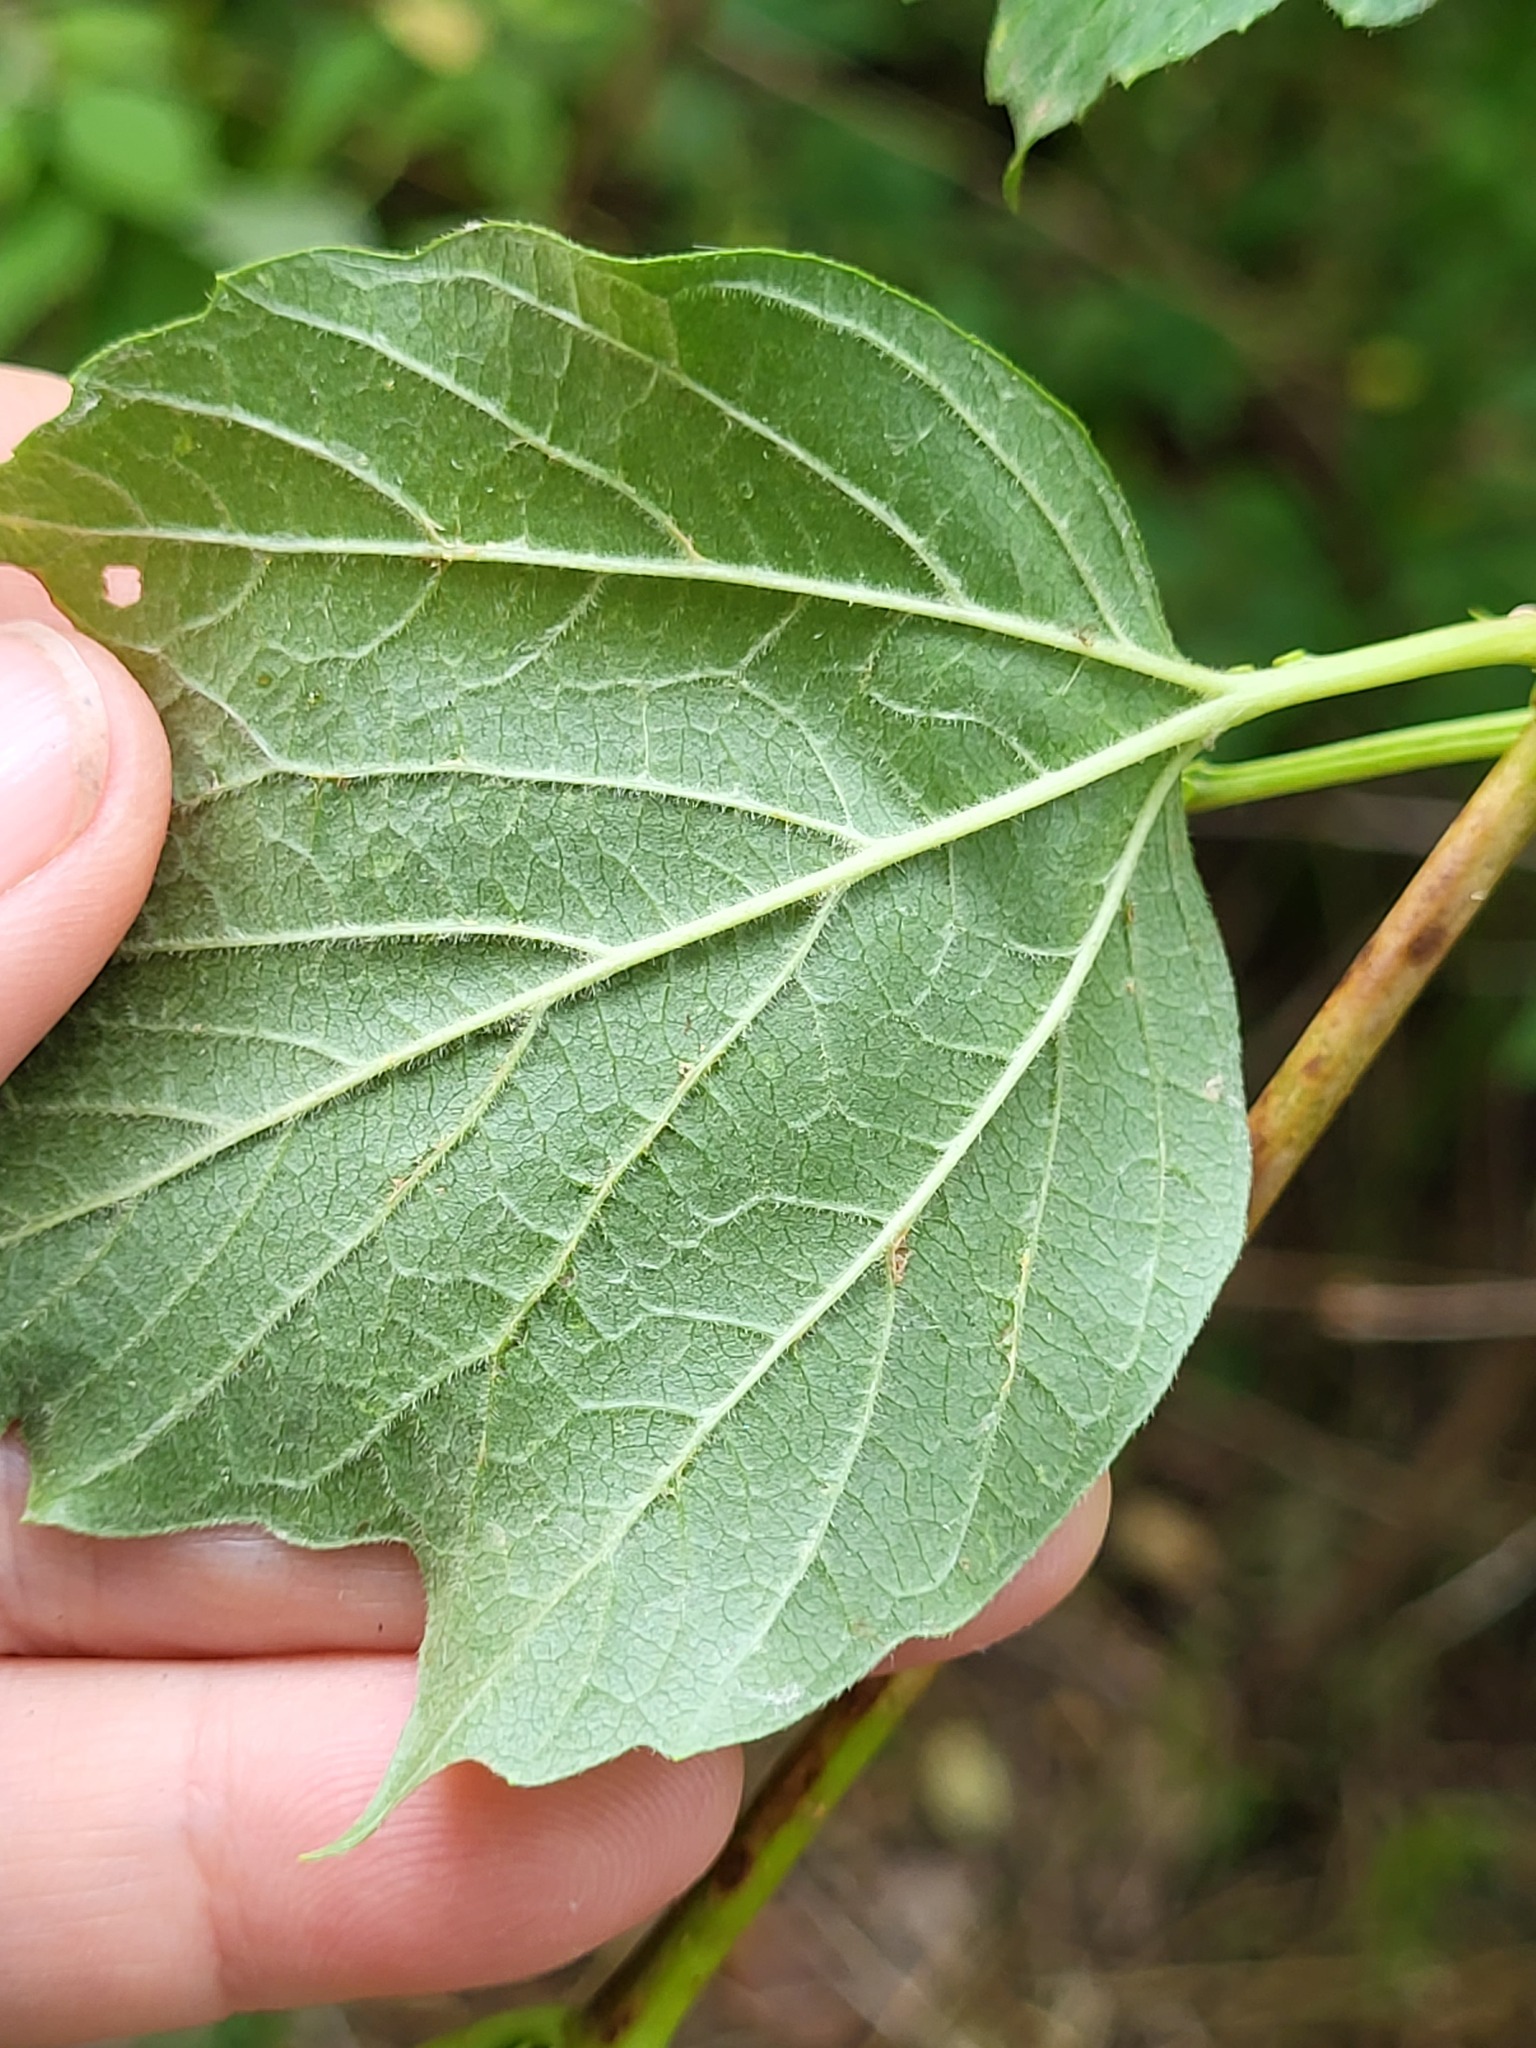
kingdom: Plantae
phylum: Tracheophyta
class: Magnoliopsida
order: Dipsacales
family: Viburnaceae
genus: Viburnum
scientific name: Viburnum opulus
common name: Guelder-rose
